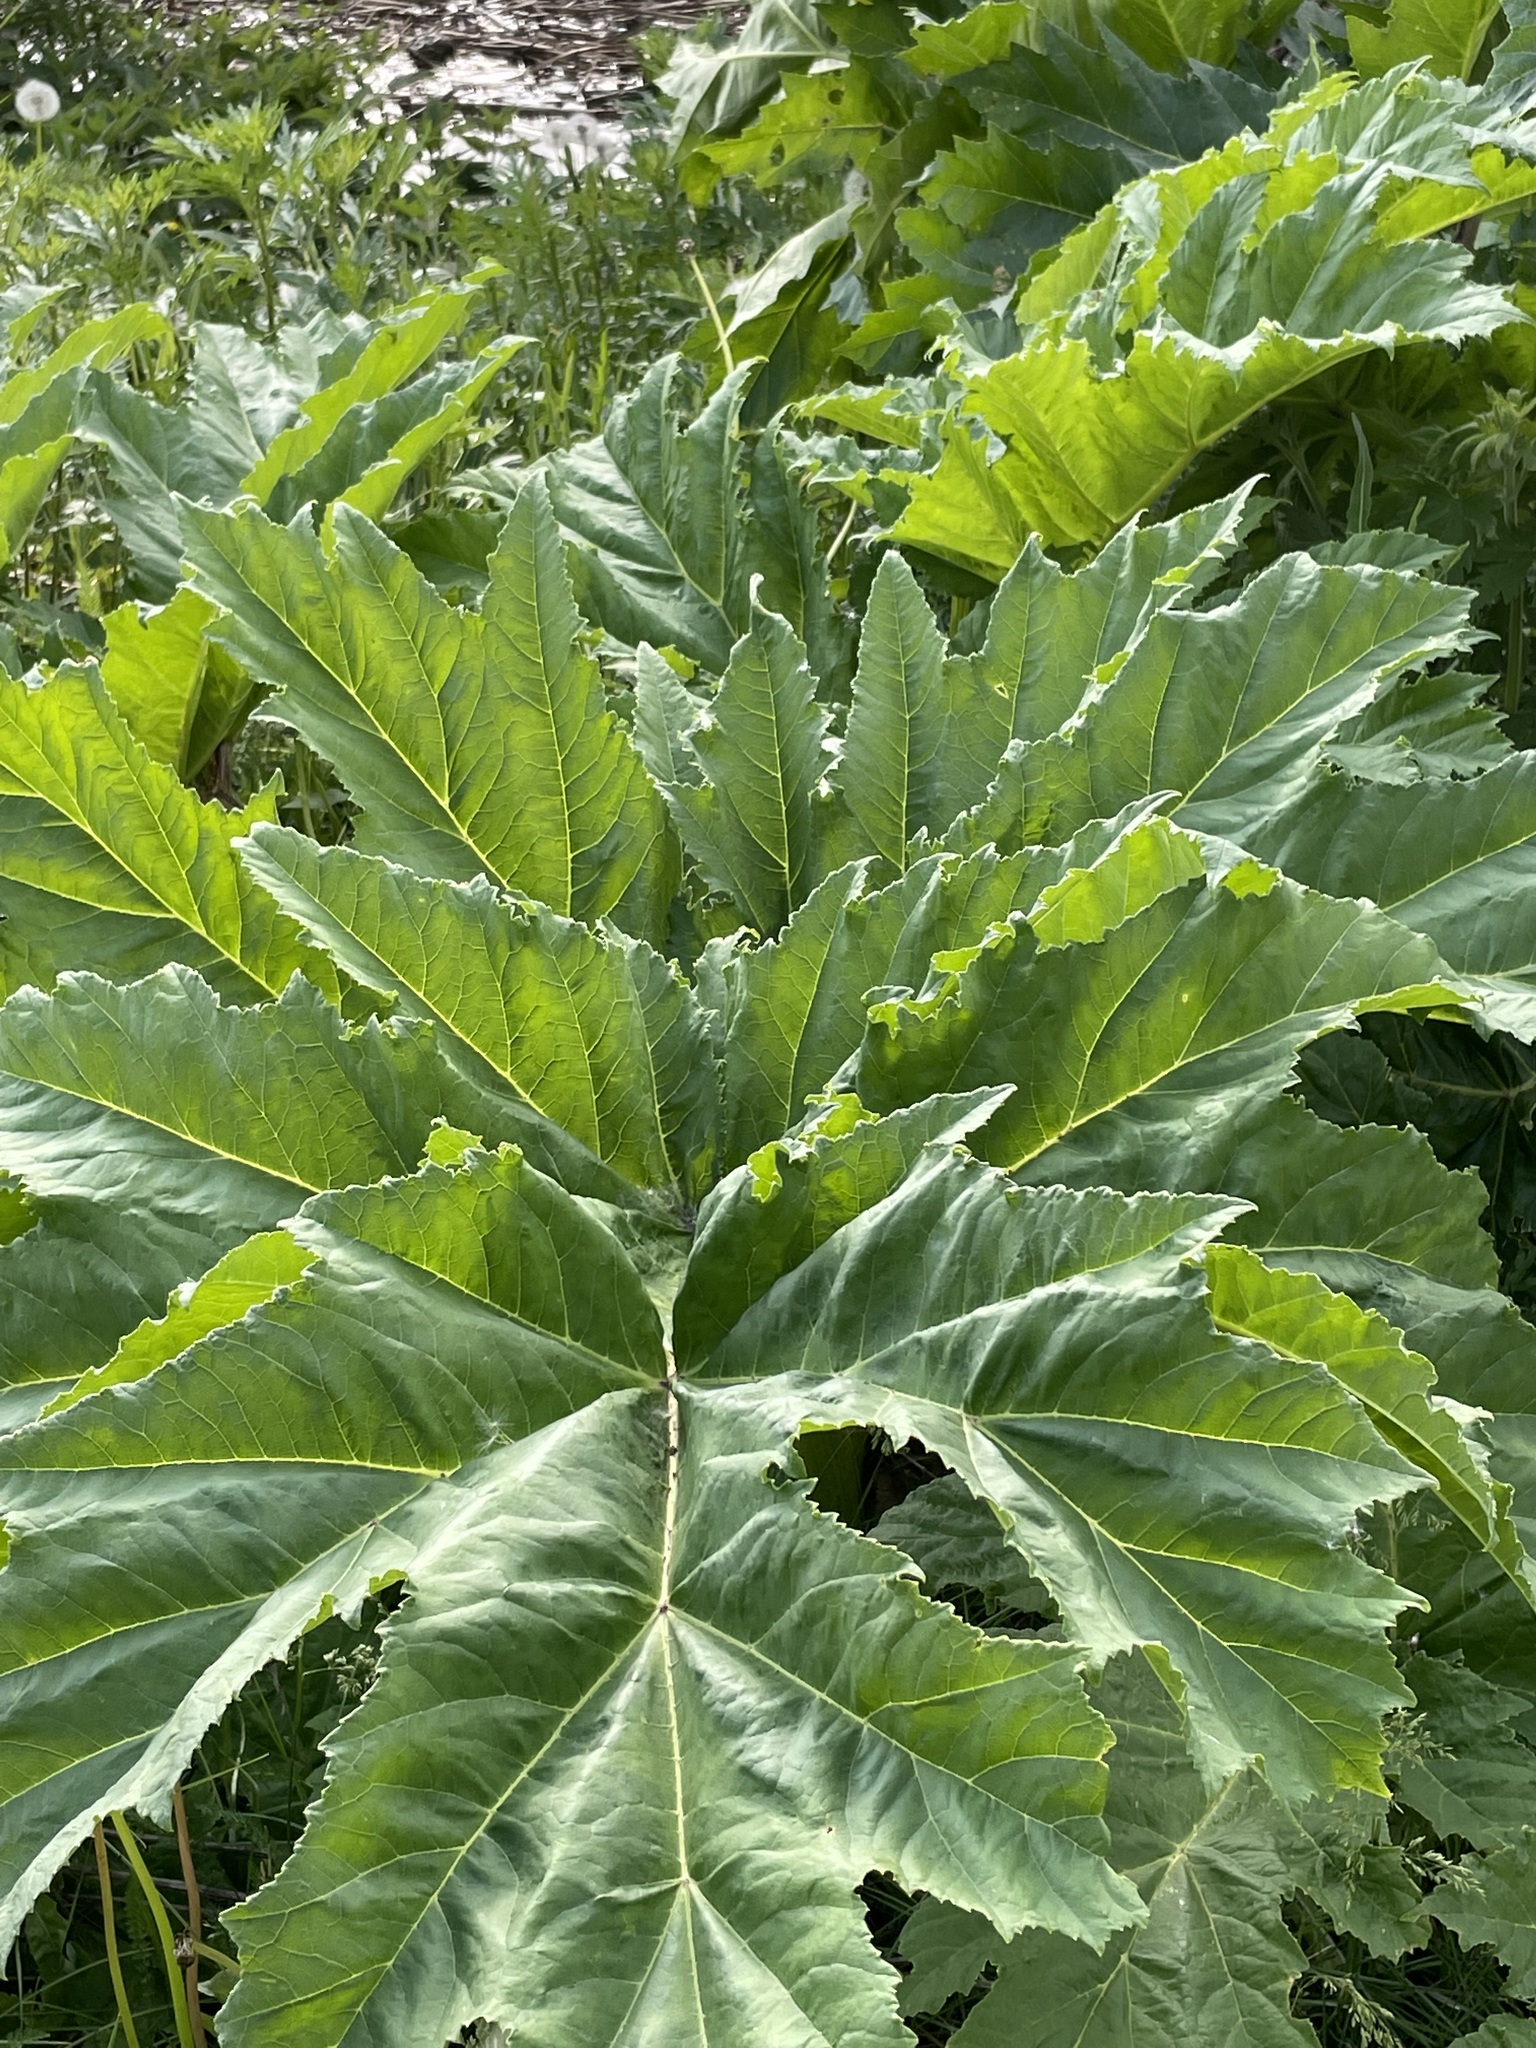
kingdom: Plantae
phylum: Tracheophyta
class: Magnoliopsida
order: Apiales
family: Apiaceae
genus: Heracleum
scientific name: Heracleum sosnowskyi
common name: Sosnowsky's hogweed
